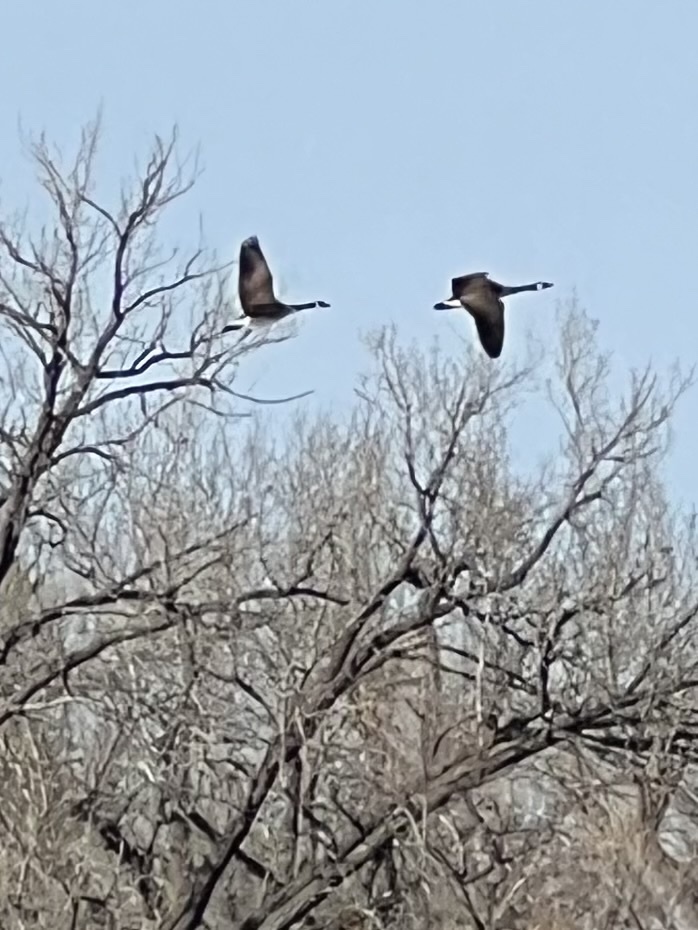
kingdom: Animalia
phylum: Chordata
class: Aves
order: Anseriformes
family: Anatidae
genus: Branta
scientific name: Branta canadensis
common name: Canada goose
